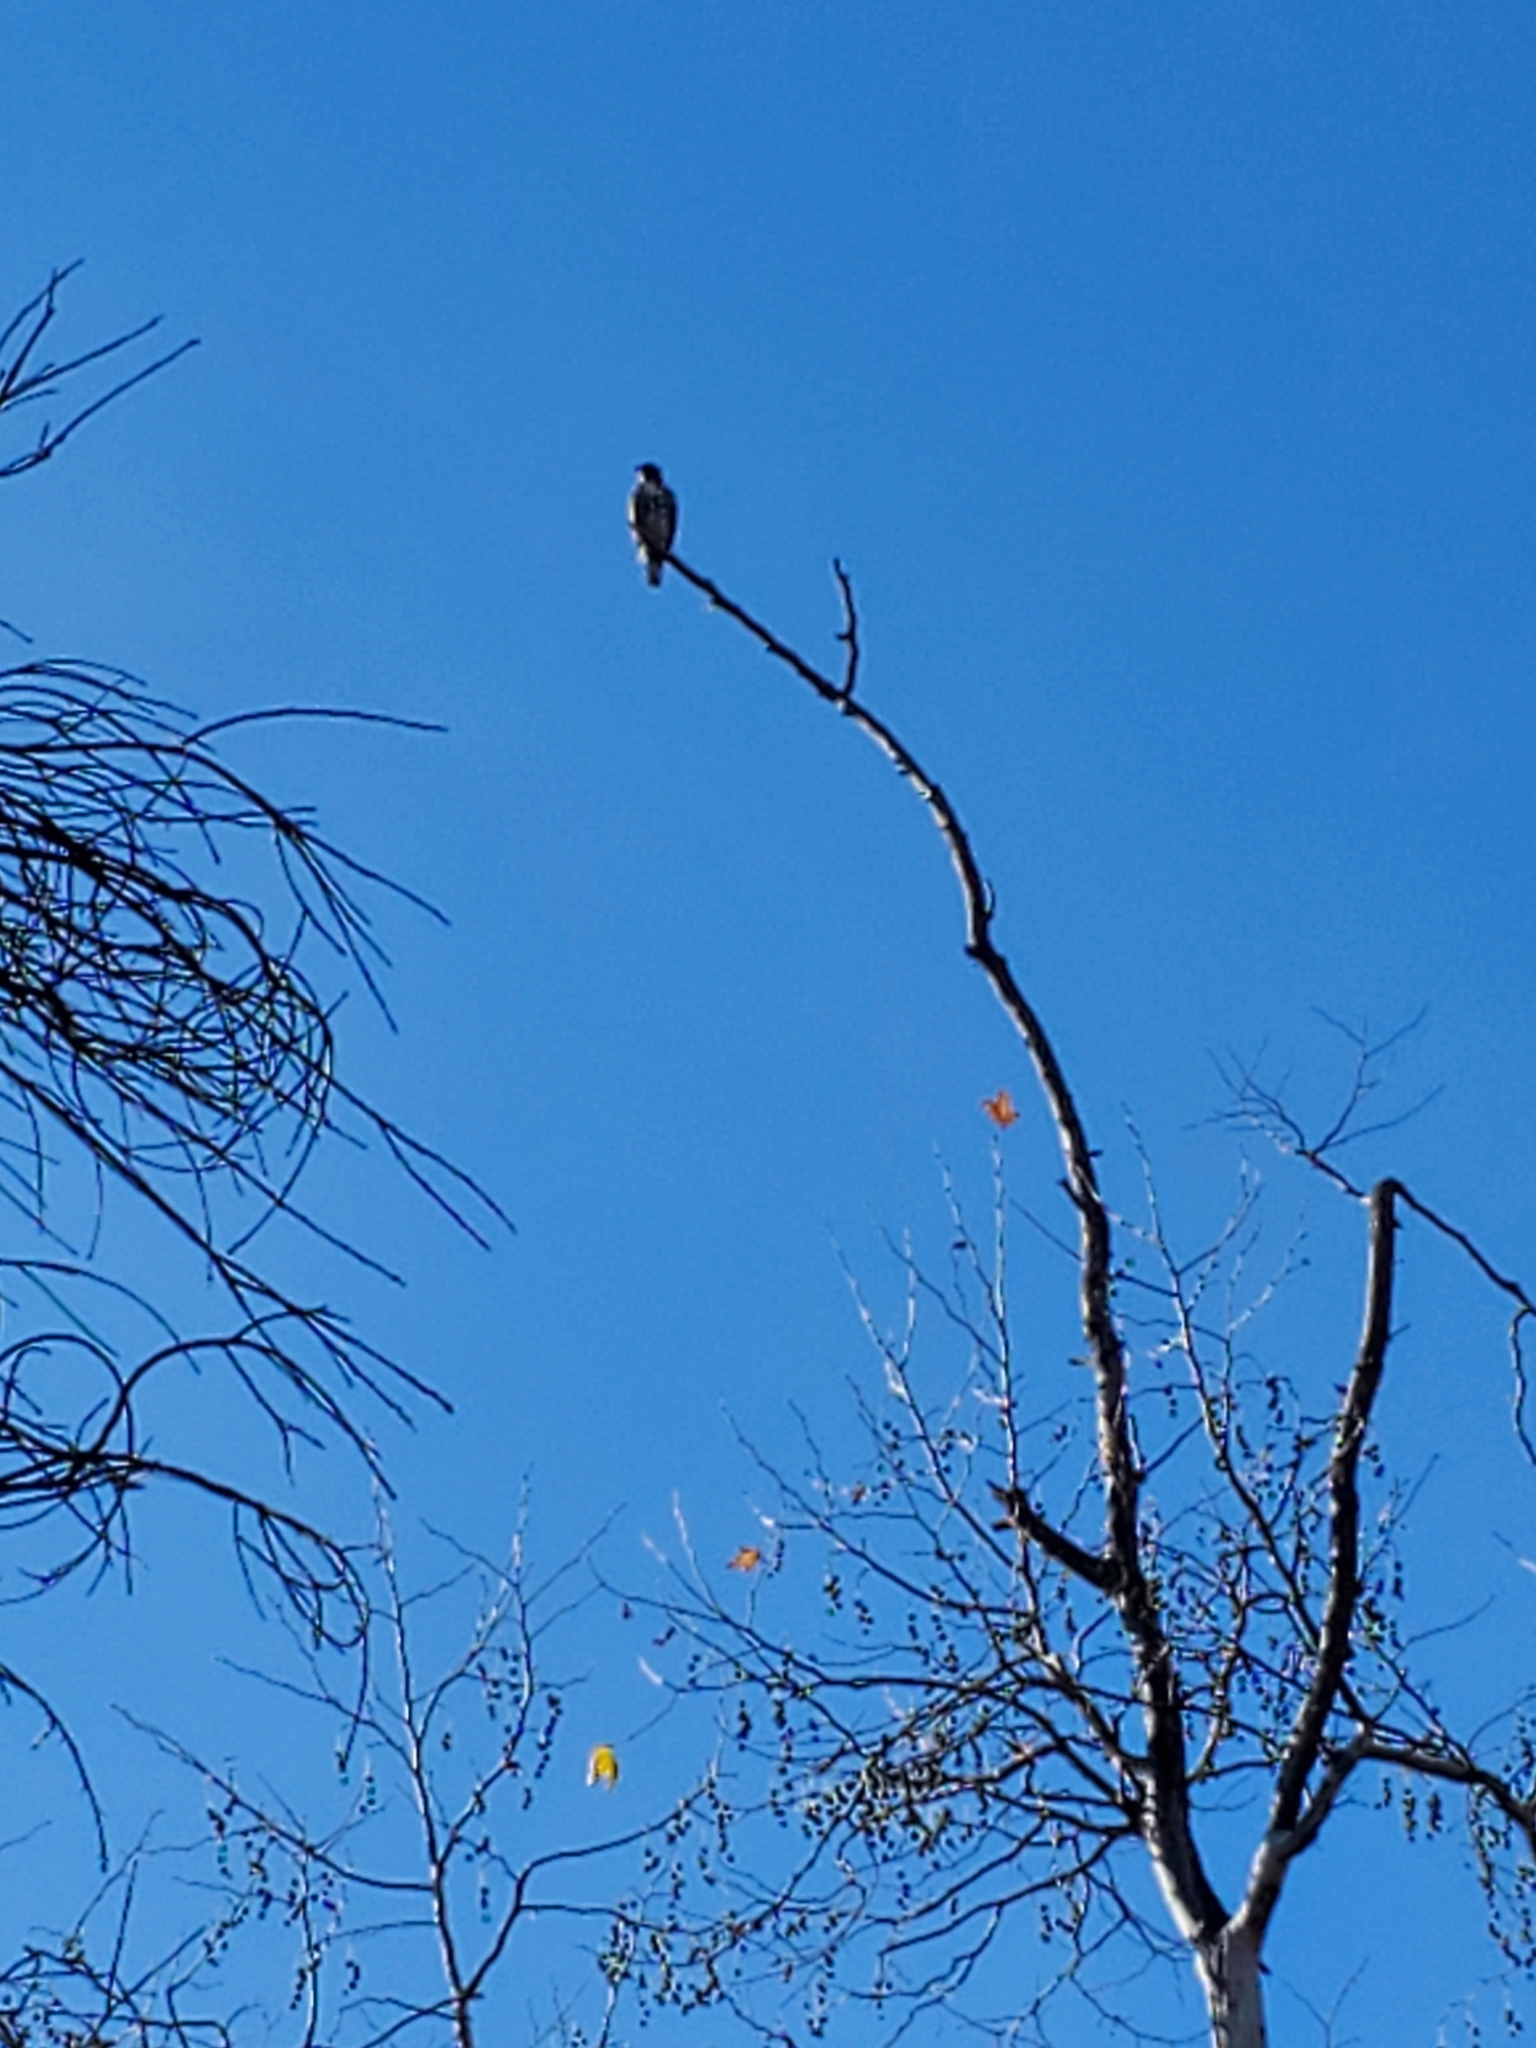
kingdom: Animalia
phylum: Chordata
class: Aves
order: Accipitriformes
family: Accipitridae
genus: Buteo
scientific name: Buteo jamaicensis
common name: Red-tailed hawk
